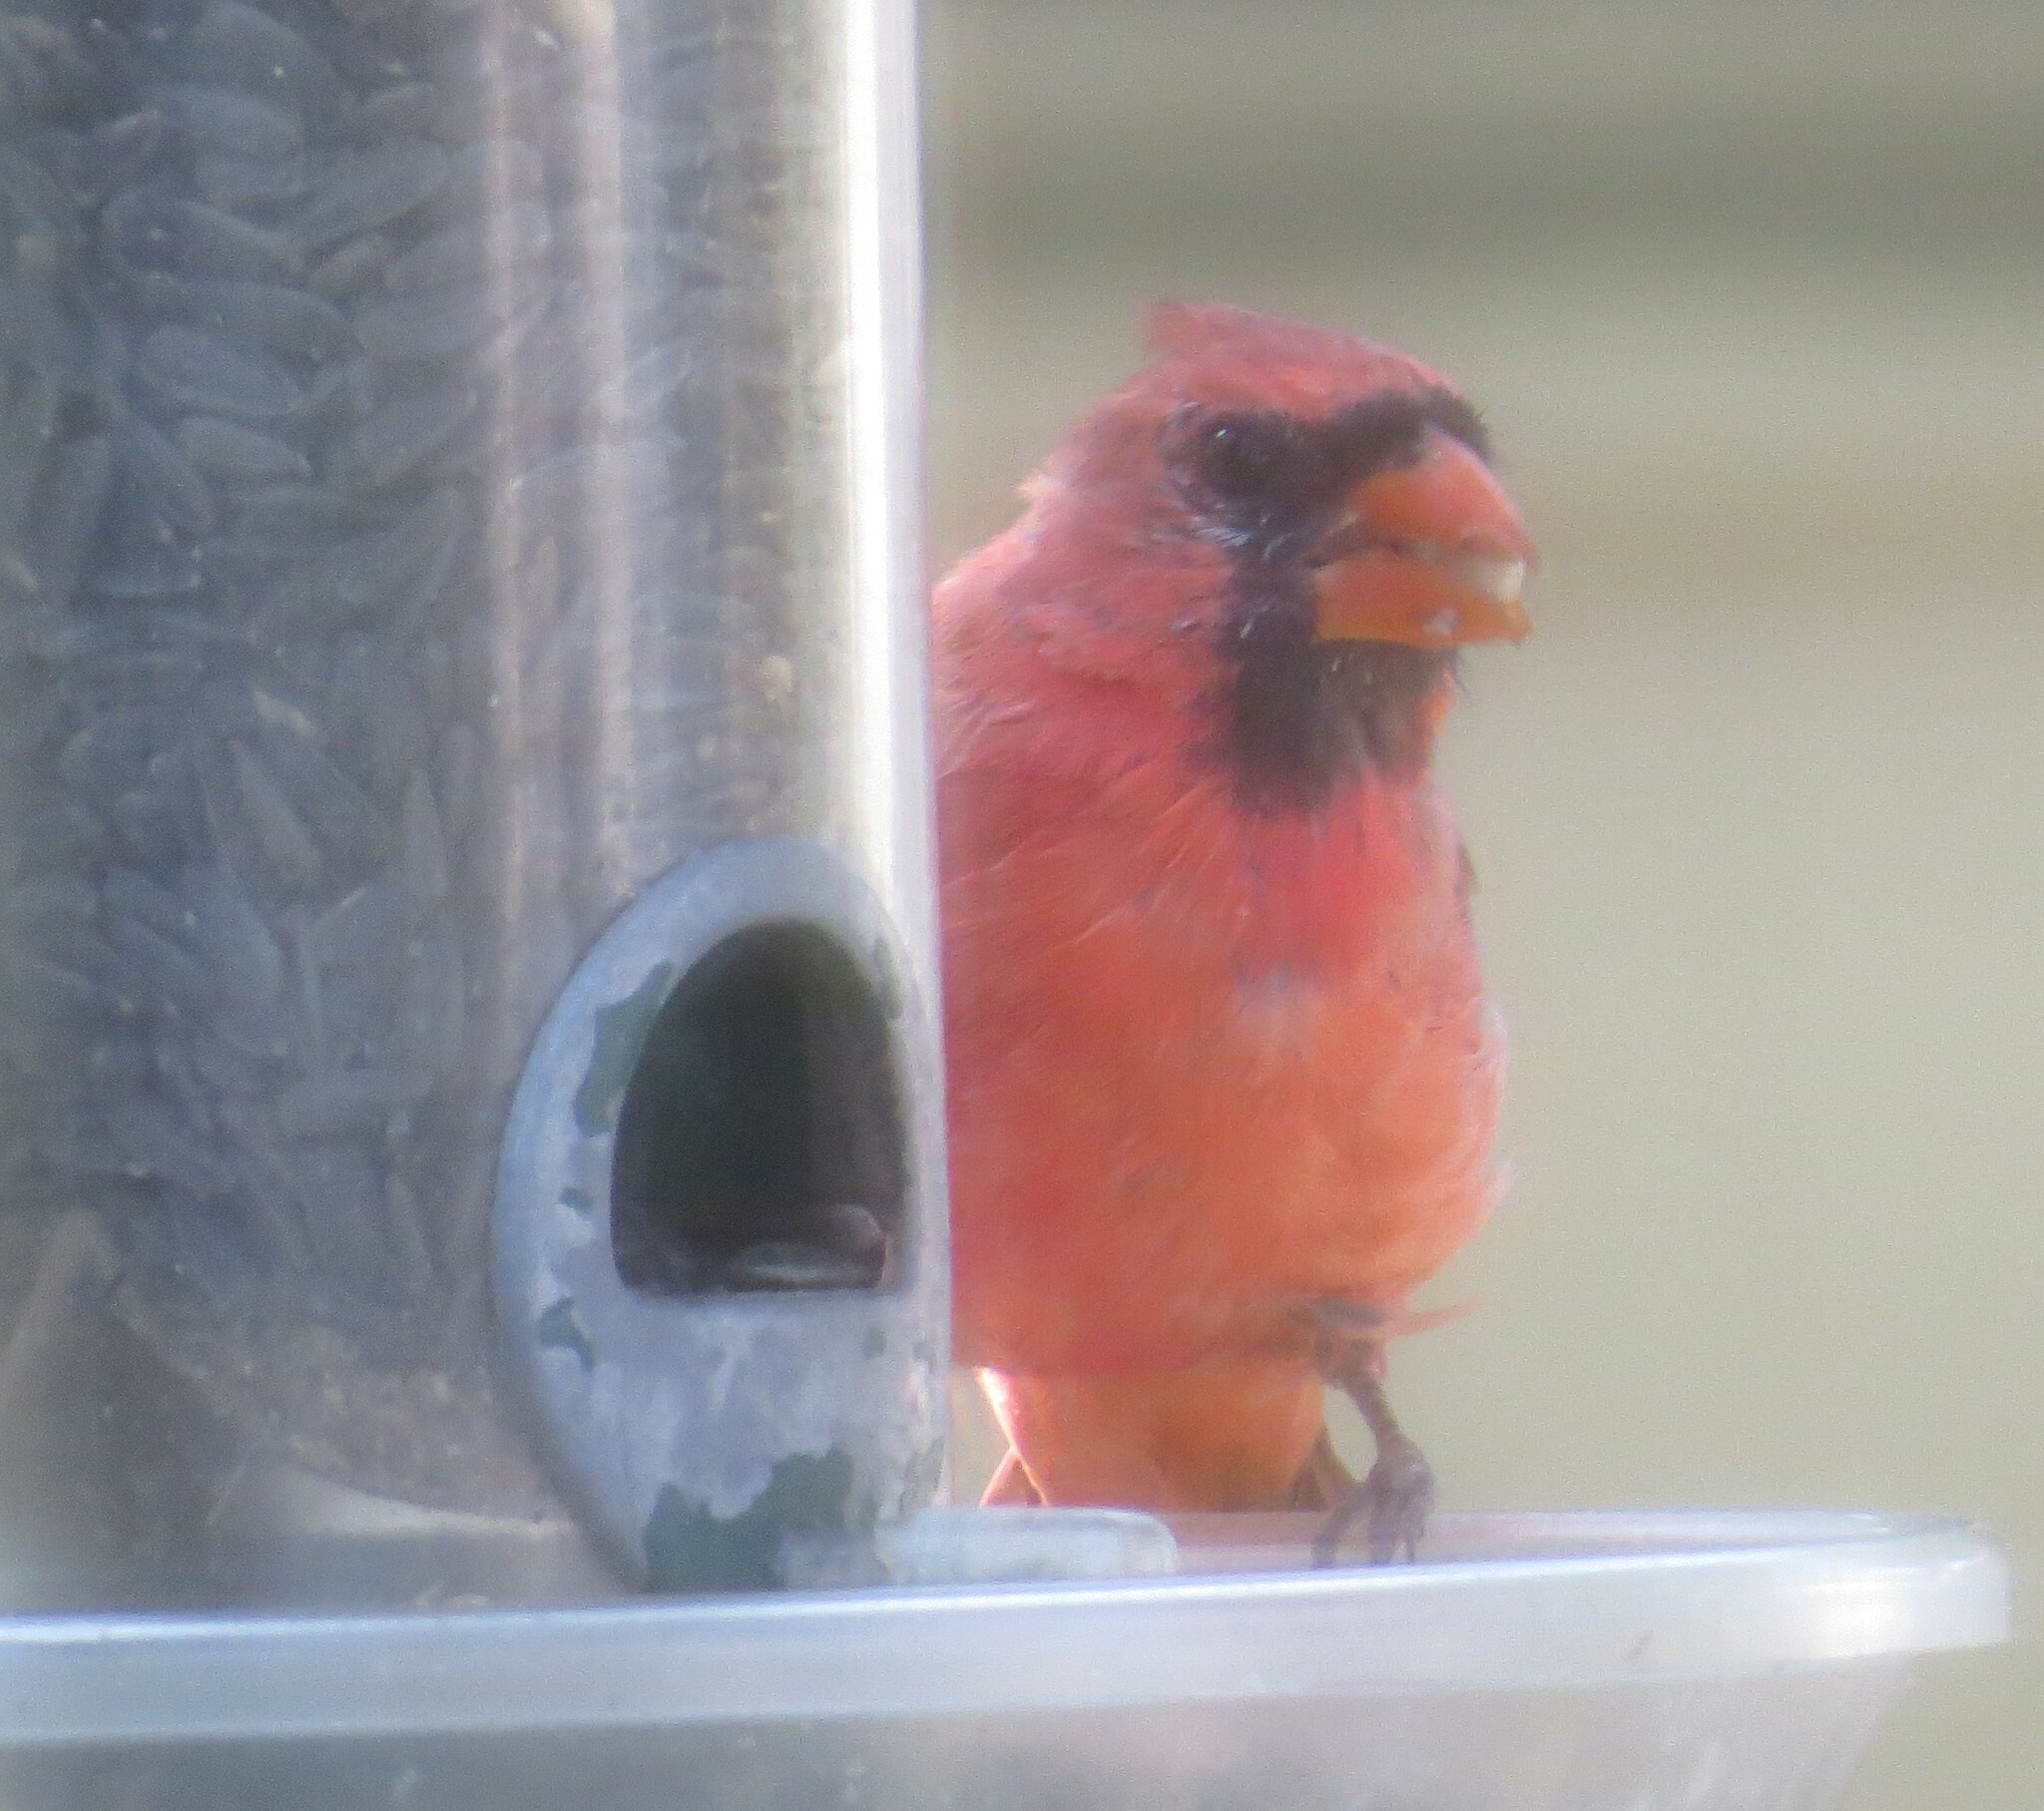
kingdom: Animalia
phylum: Chordata
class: Aves
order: Passeriformes
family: Cardinalidae
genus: Cardinalis
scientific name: Cardinalis cardinalis
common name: Northern cardinal
